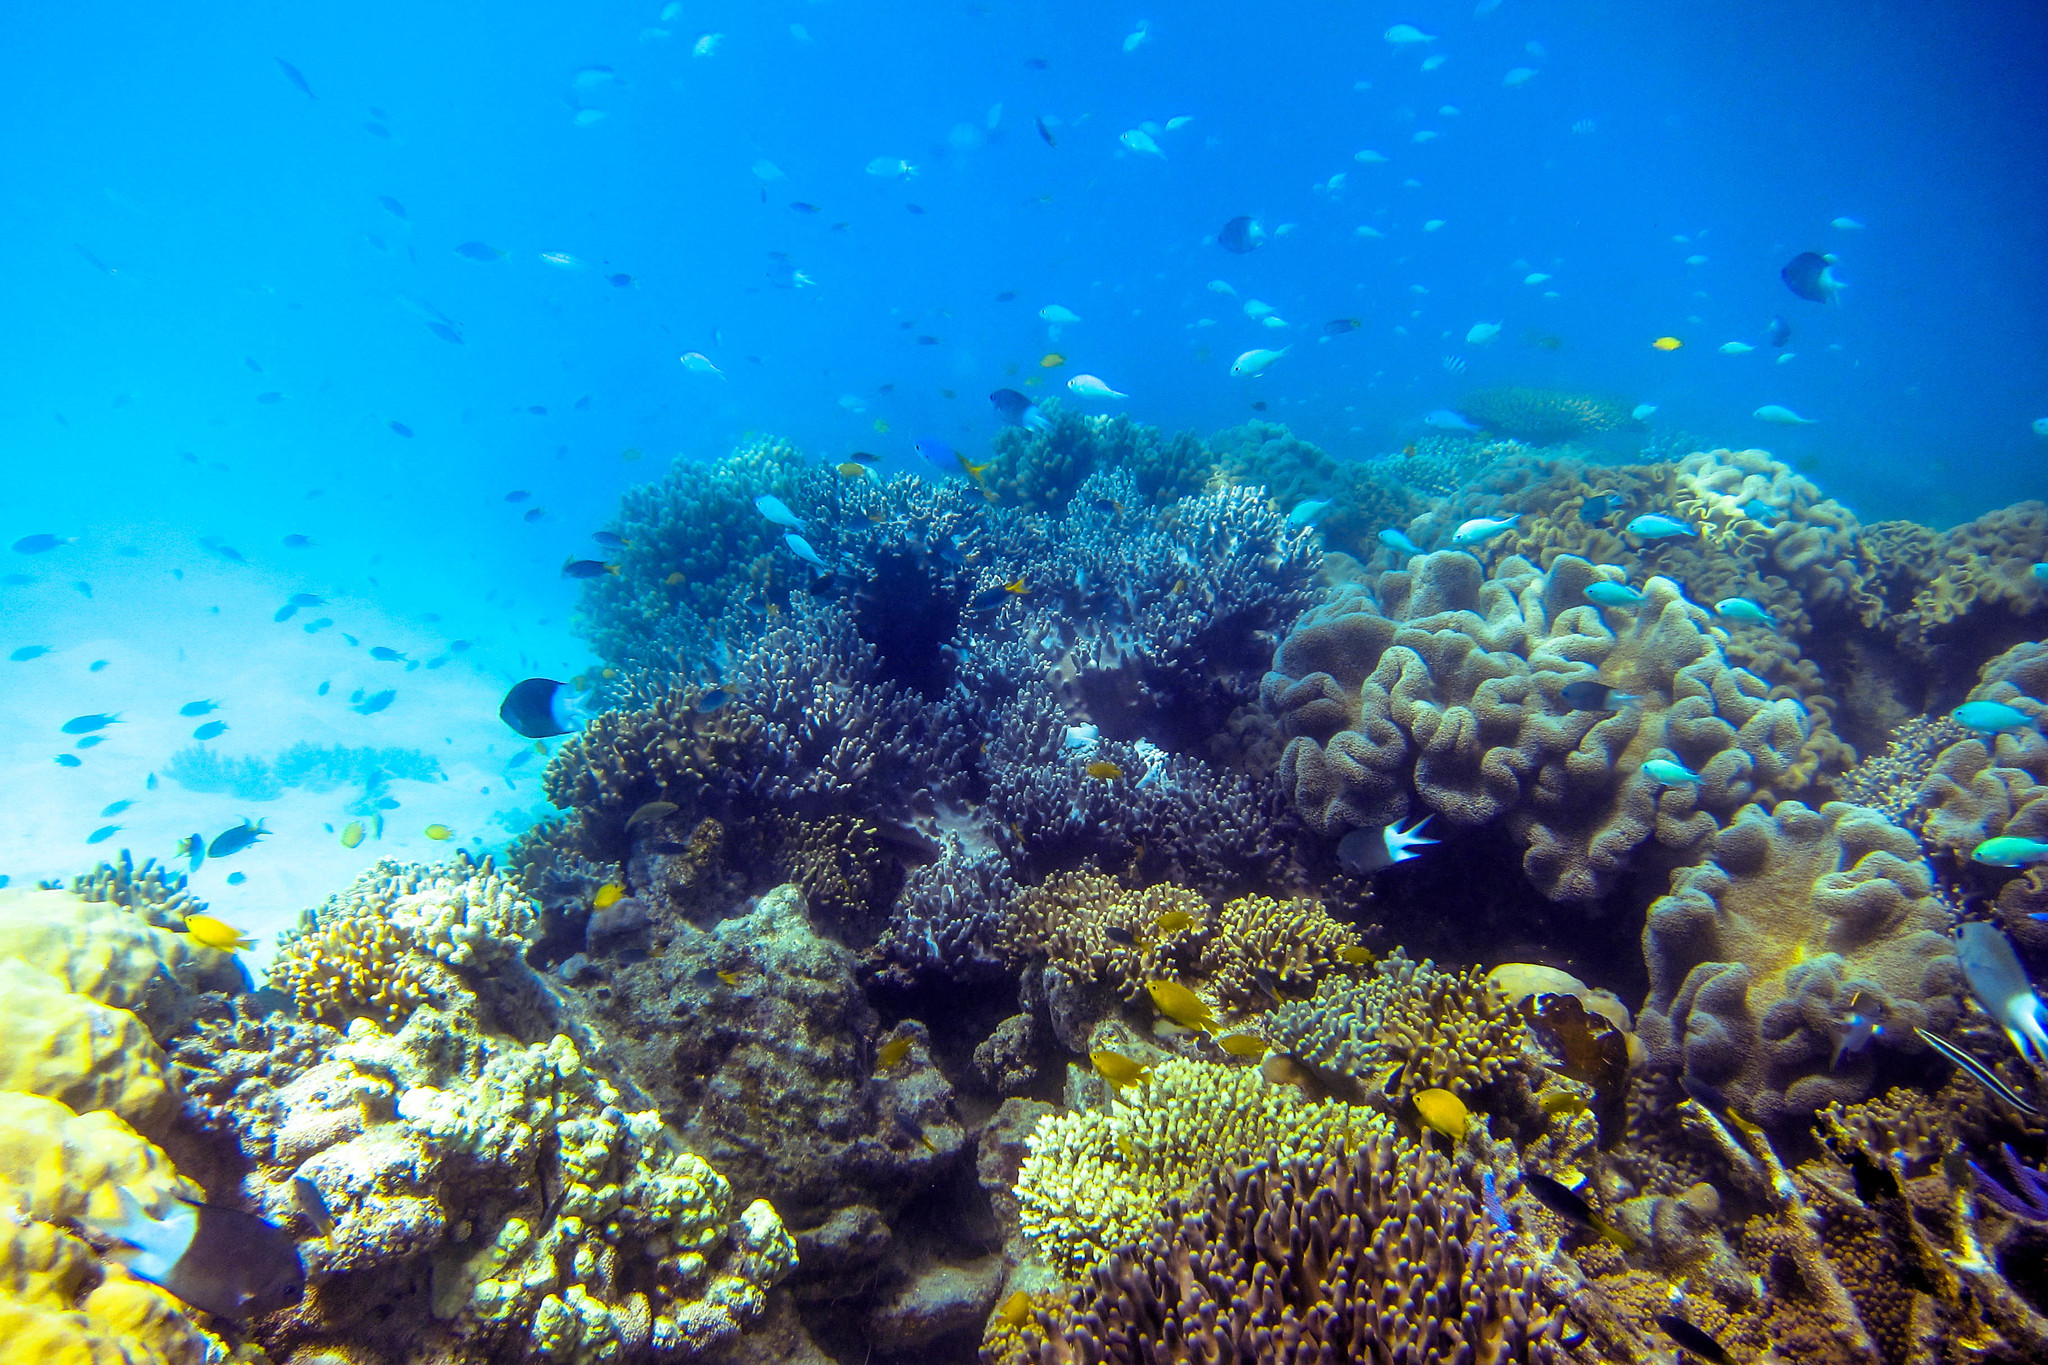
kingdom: Animalia
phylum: Chordata
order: Perciformes
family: Pomacentridae
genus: Acanthochromis
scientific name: Acanthochromis polyacanthus
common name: Spiny chromis
